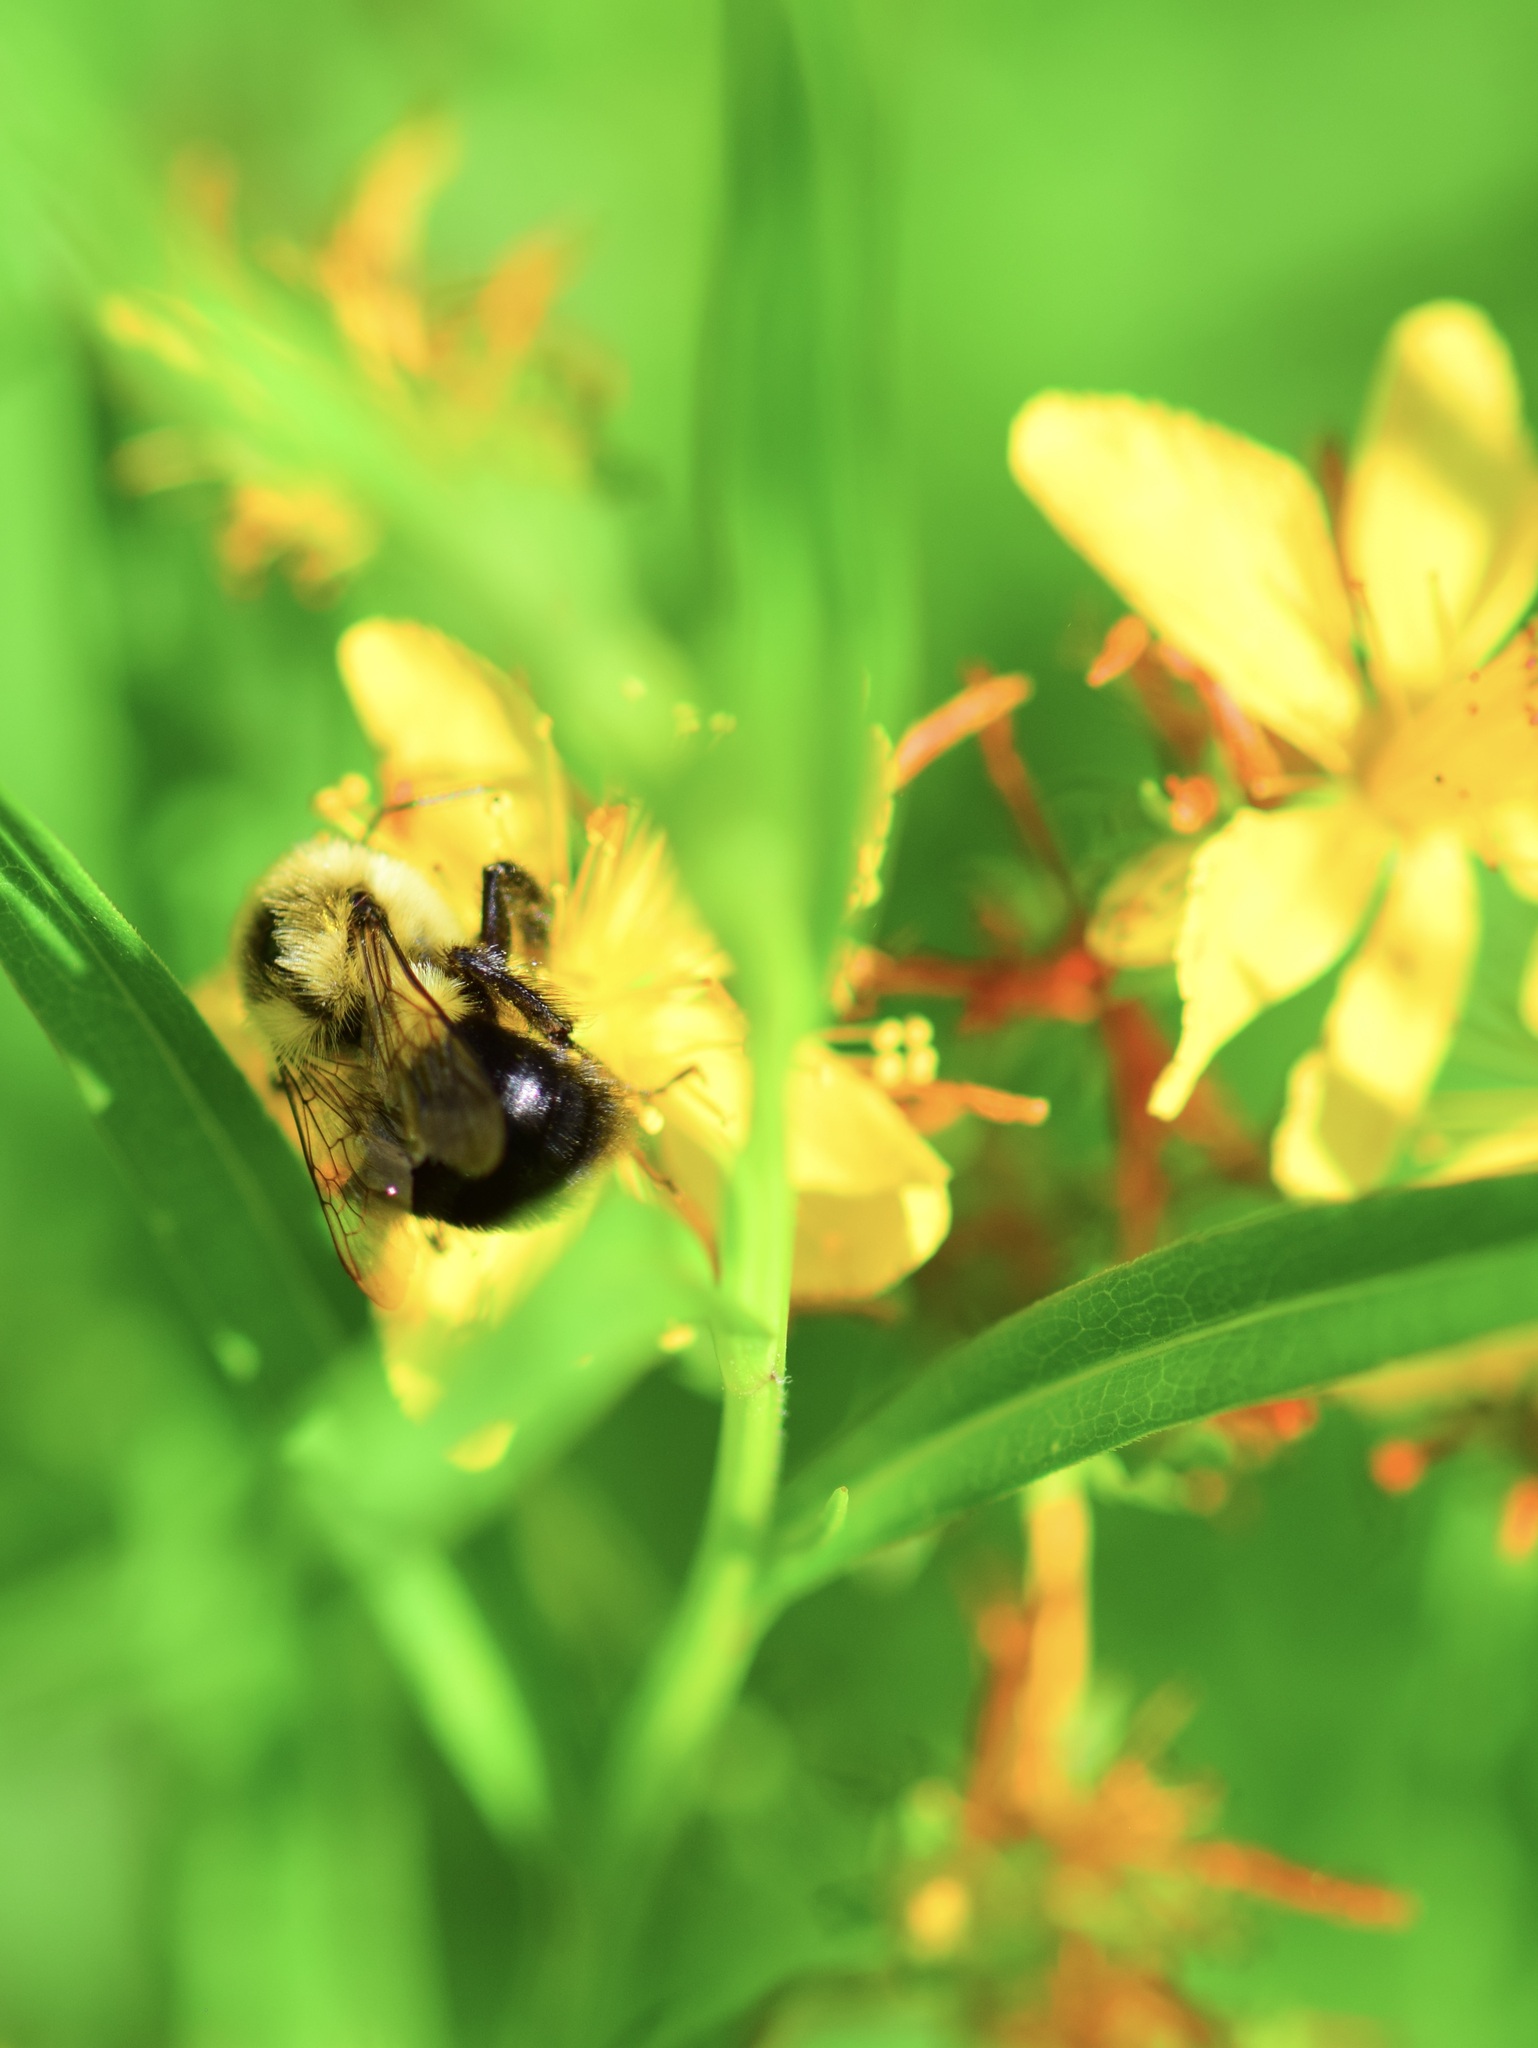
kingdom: Animalia
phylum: Arthropoda
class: Insecta
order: Hymenoptera
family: Apidae
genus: Bombus
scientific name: Bombus impatiens
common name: Common eastern bumble bee
